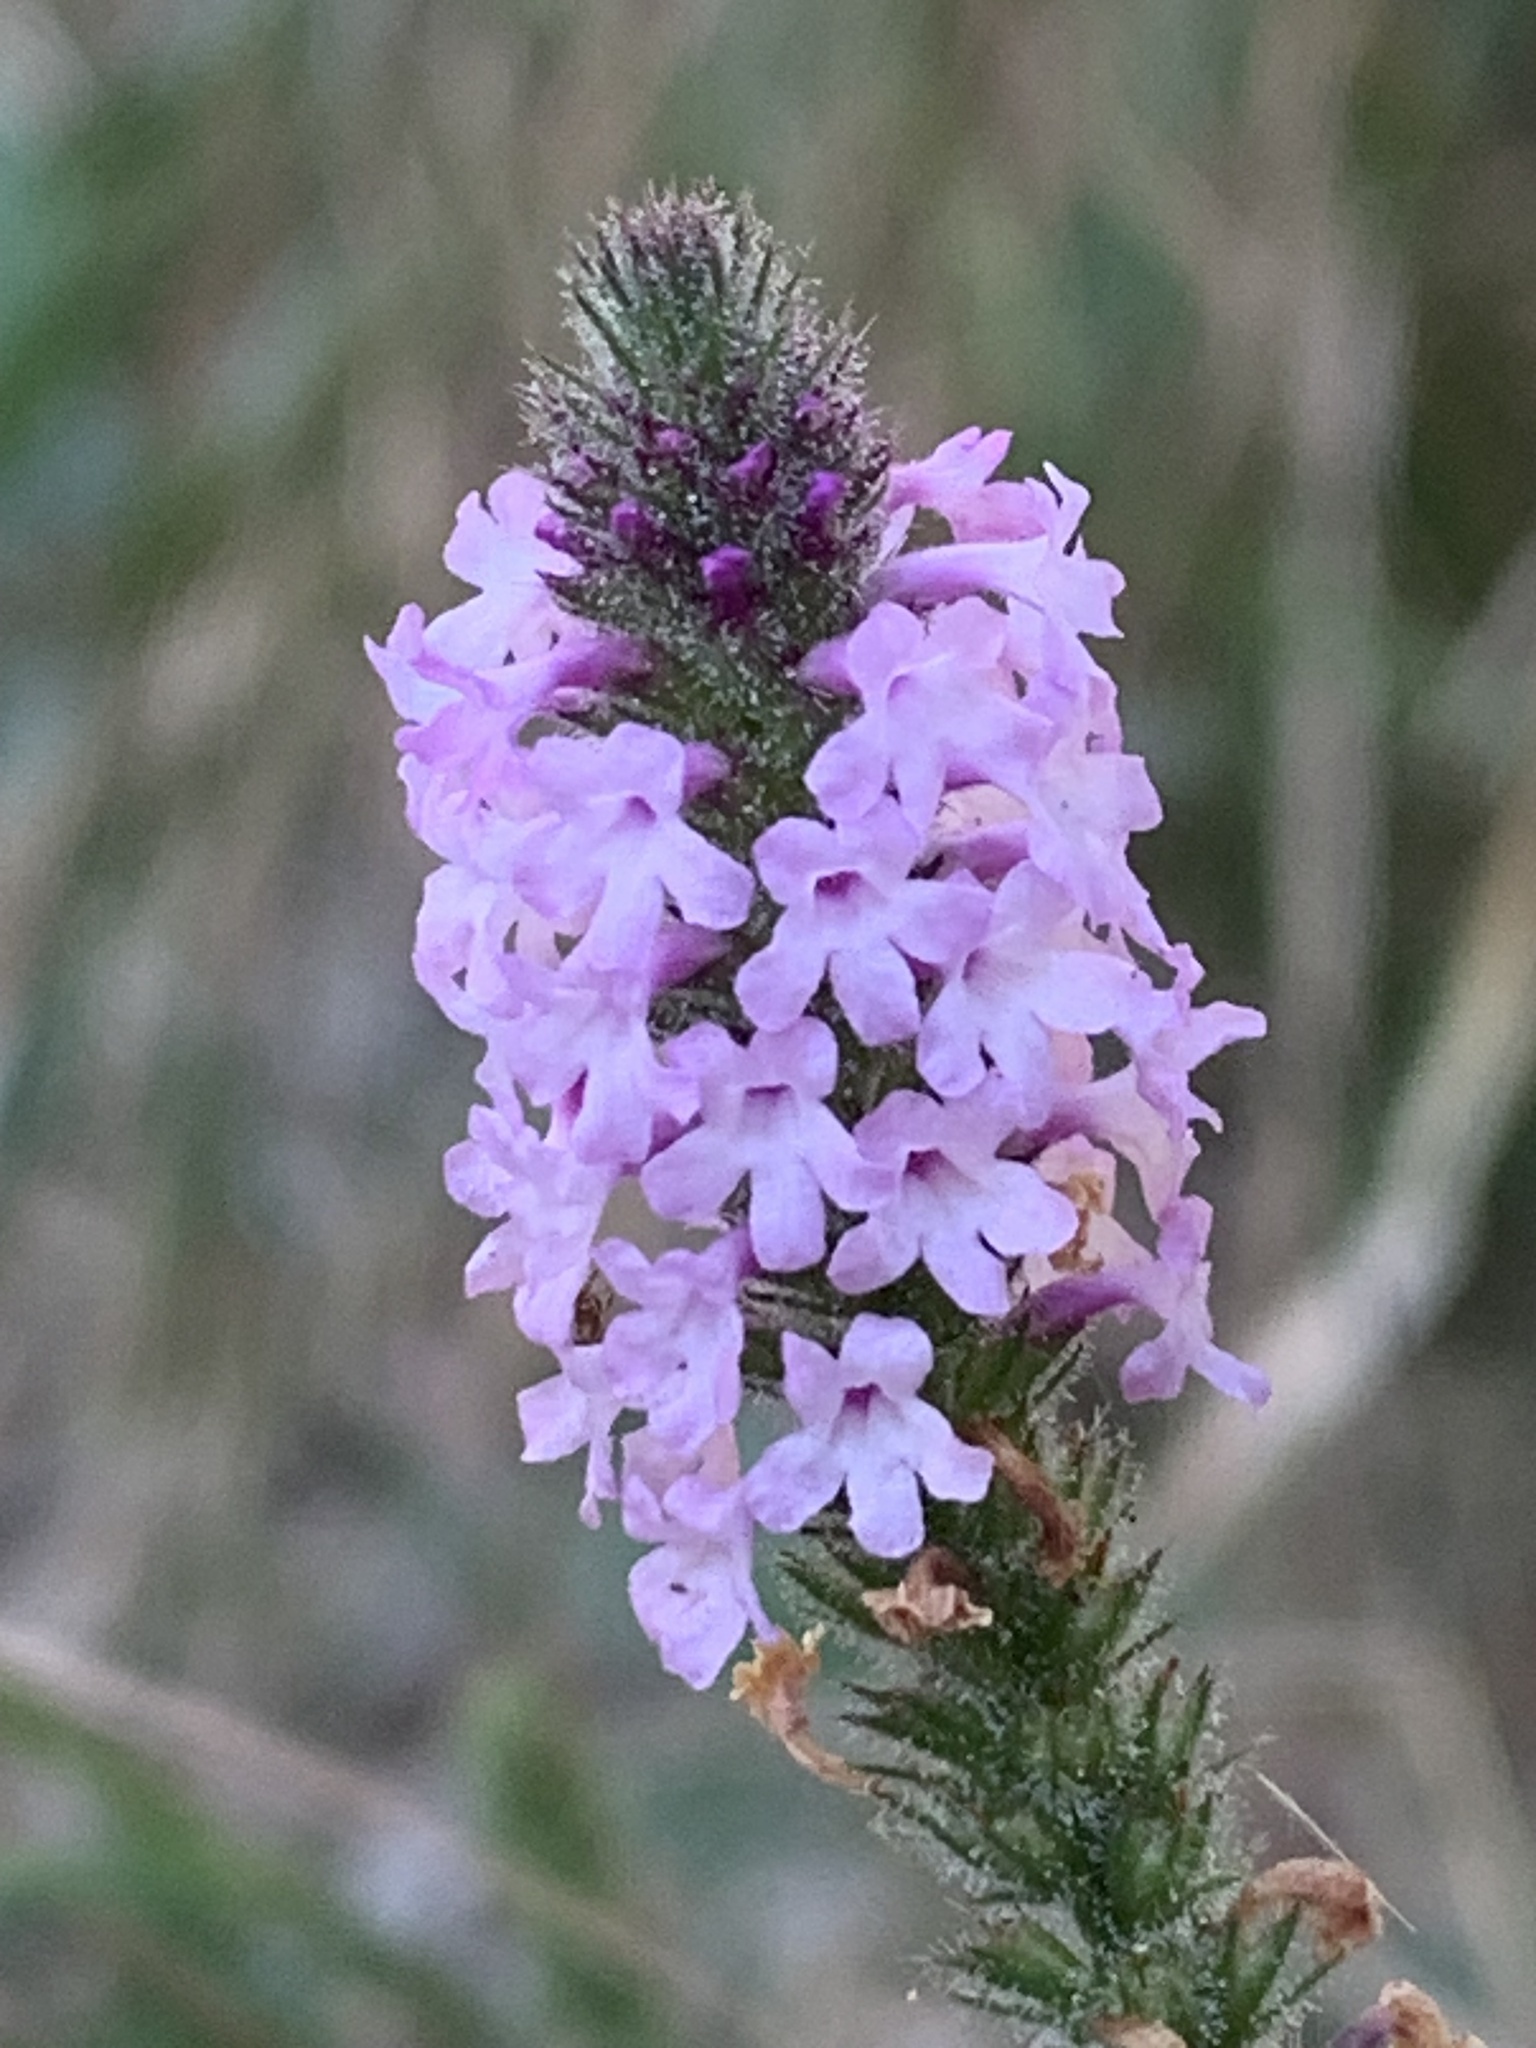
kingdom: Plantae
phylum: Tracheophyta
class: Magnoliopsida
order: Lamiales
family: Verbenaceae
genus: Verbena
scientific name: Verbena lasiostachys
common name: Vervain
